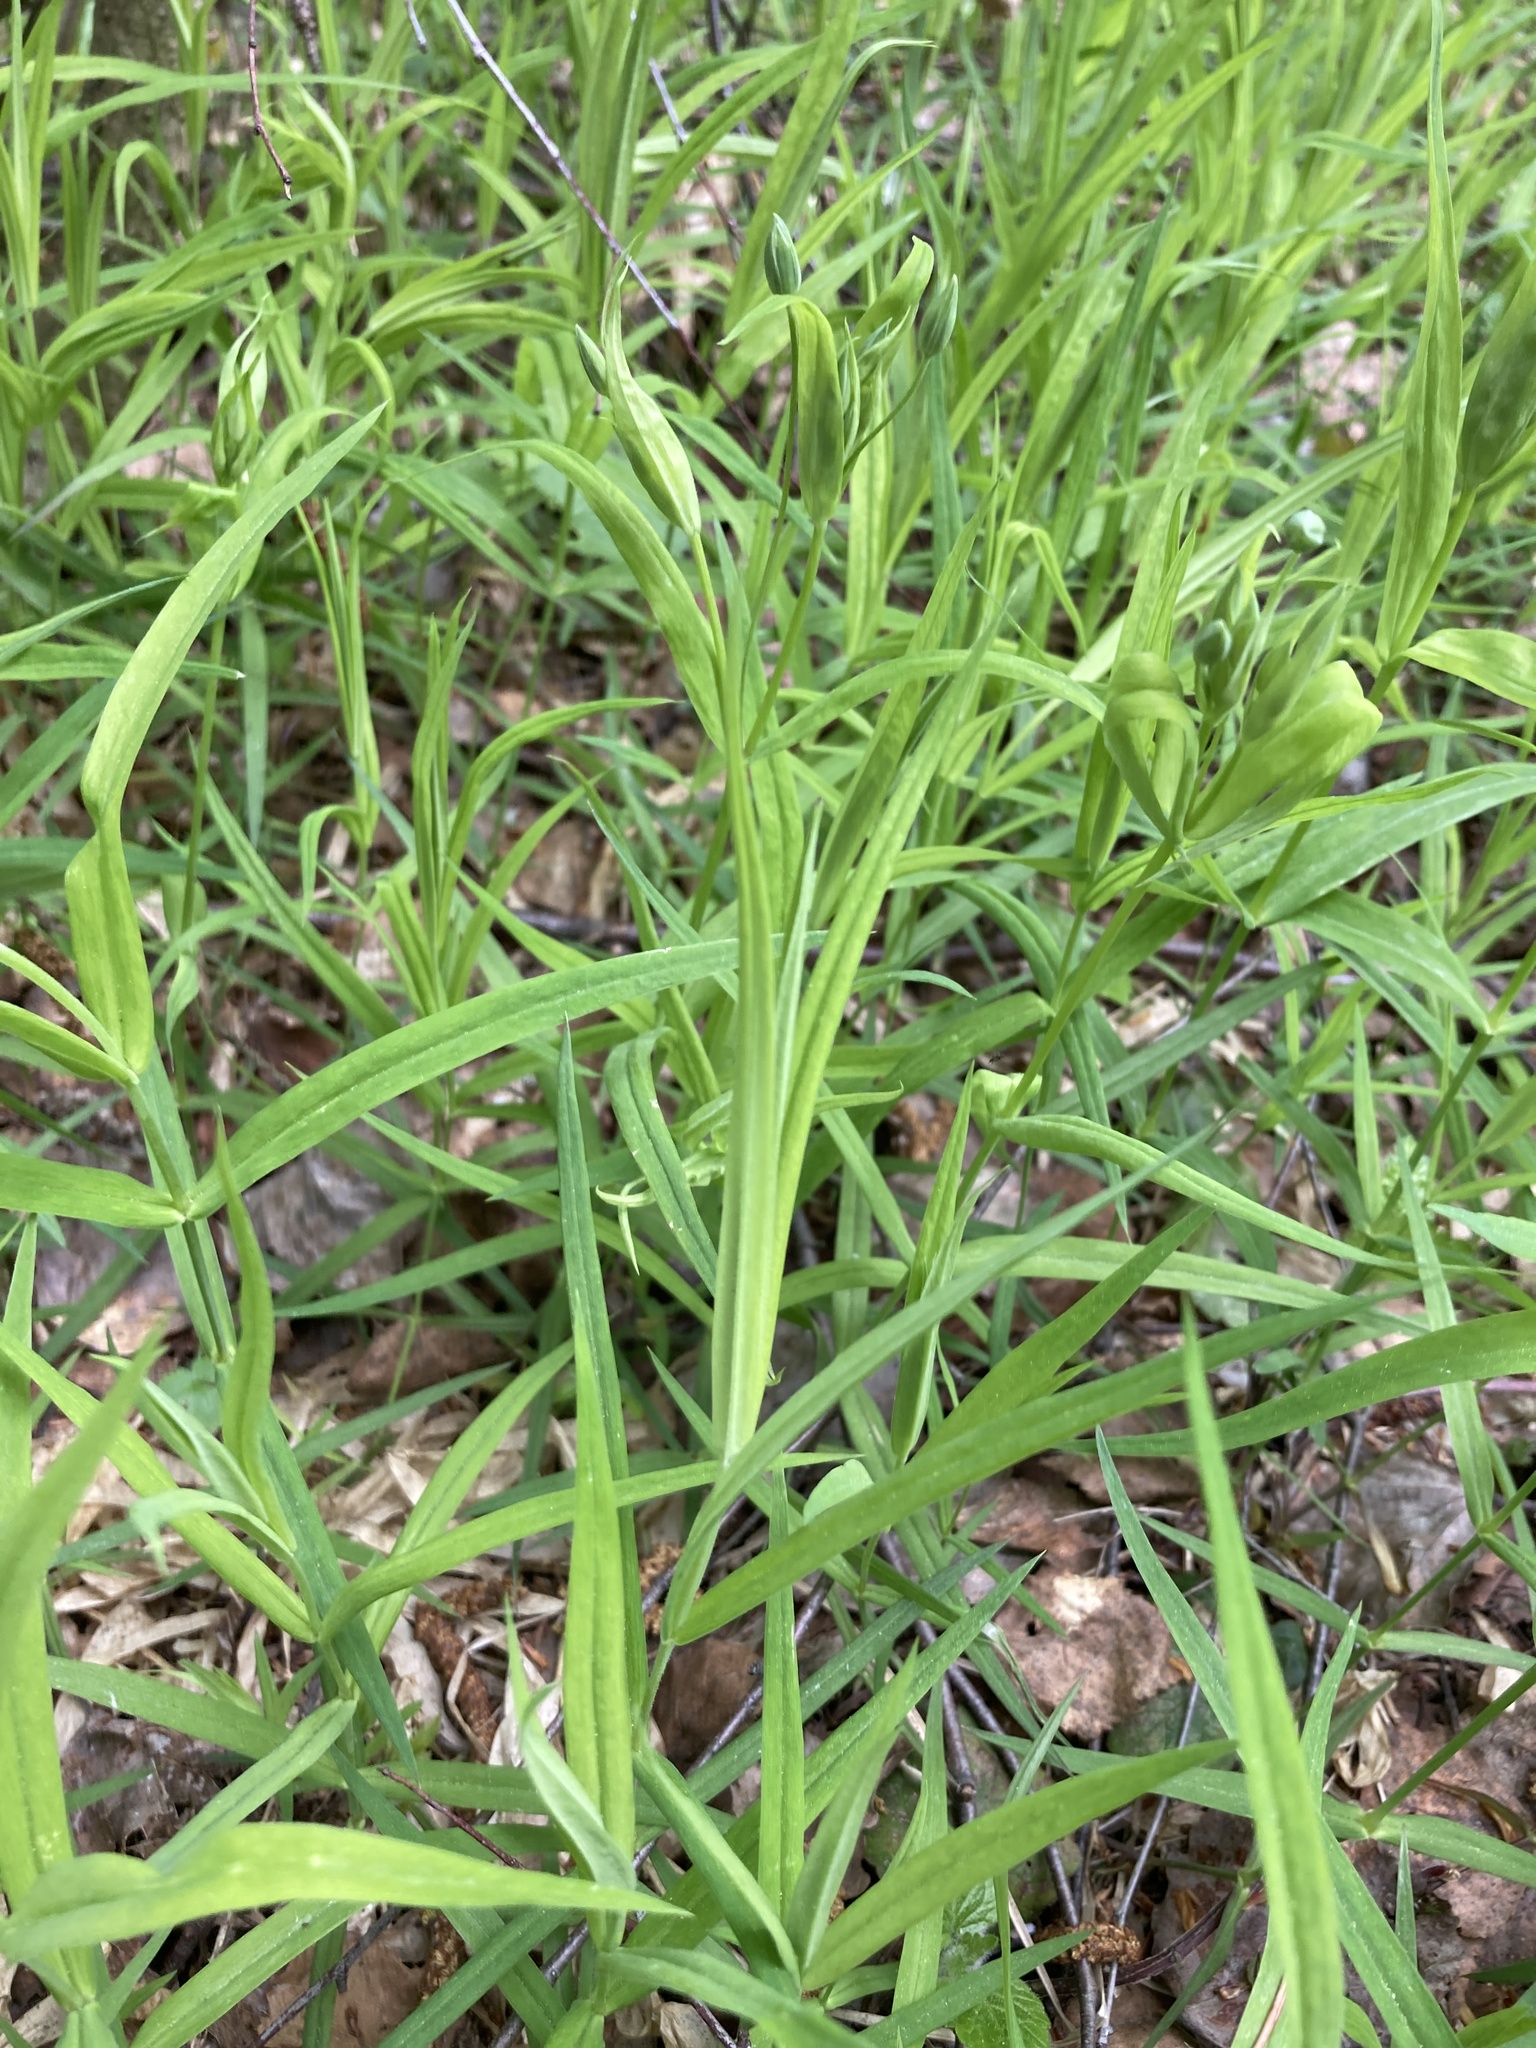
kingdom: Plantae
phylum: Tracheophyta
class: Magnoliopsida
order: Caryophyllales
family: Caryophyllaceae
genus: Rabelera
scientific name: Rabelera holostea
